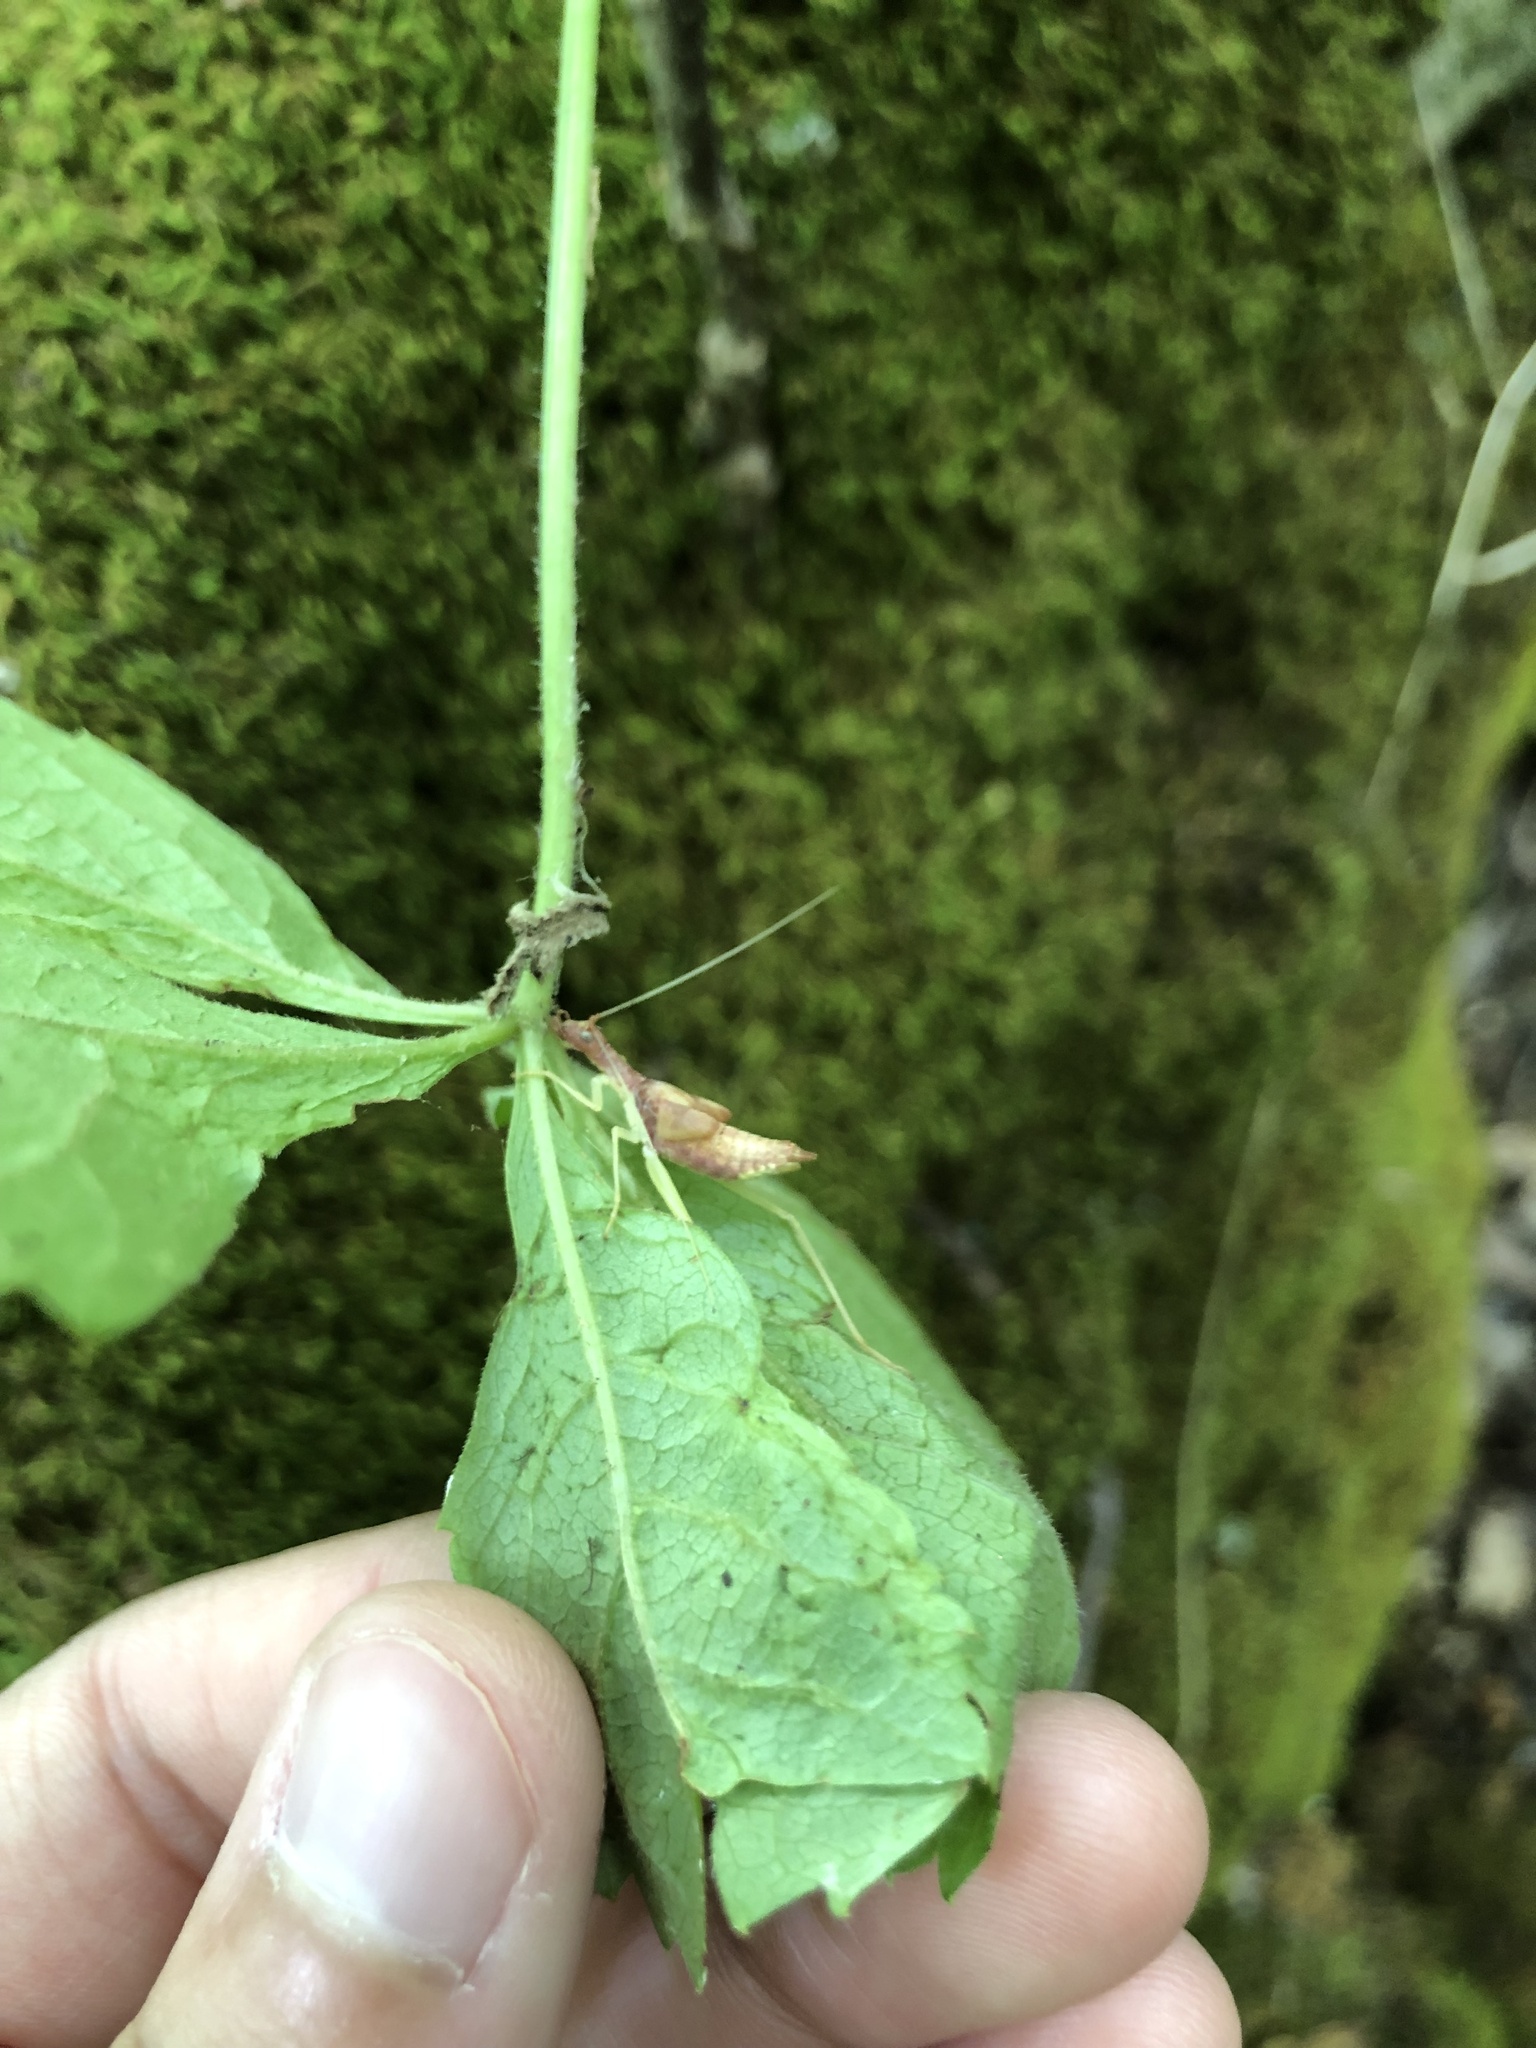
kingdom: Animalia
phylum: Arthropoda
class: Insecta
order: Orthoptera
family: Gryllidae
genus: Neoxabea
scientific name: Neoxabea bipunctata
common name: Two-spotted tree cricket
